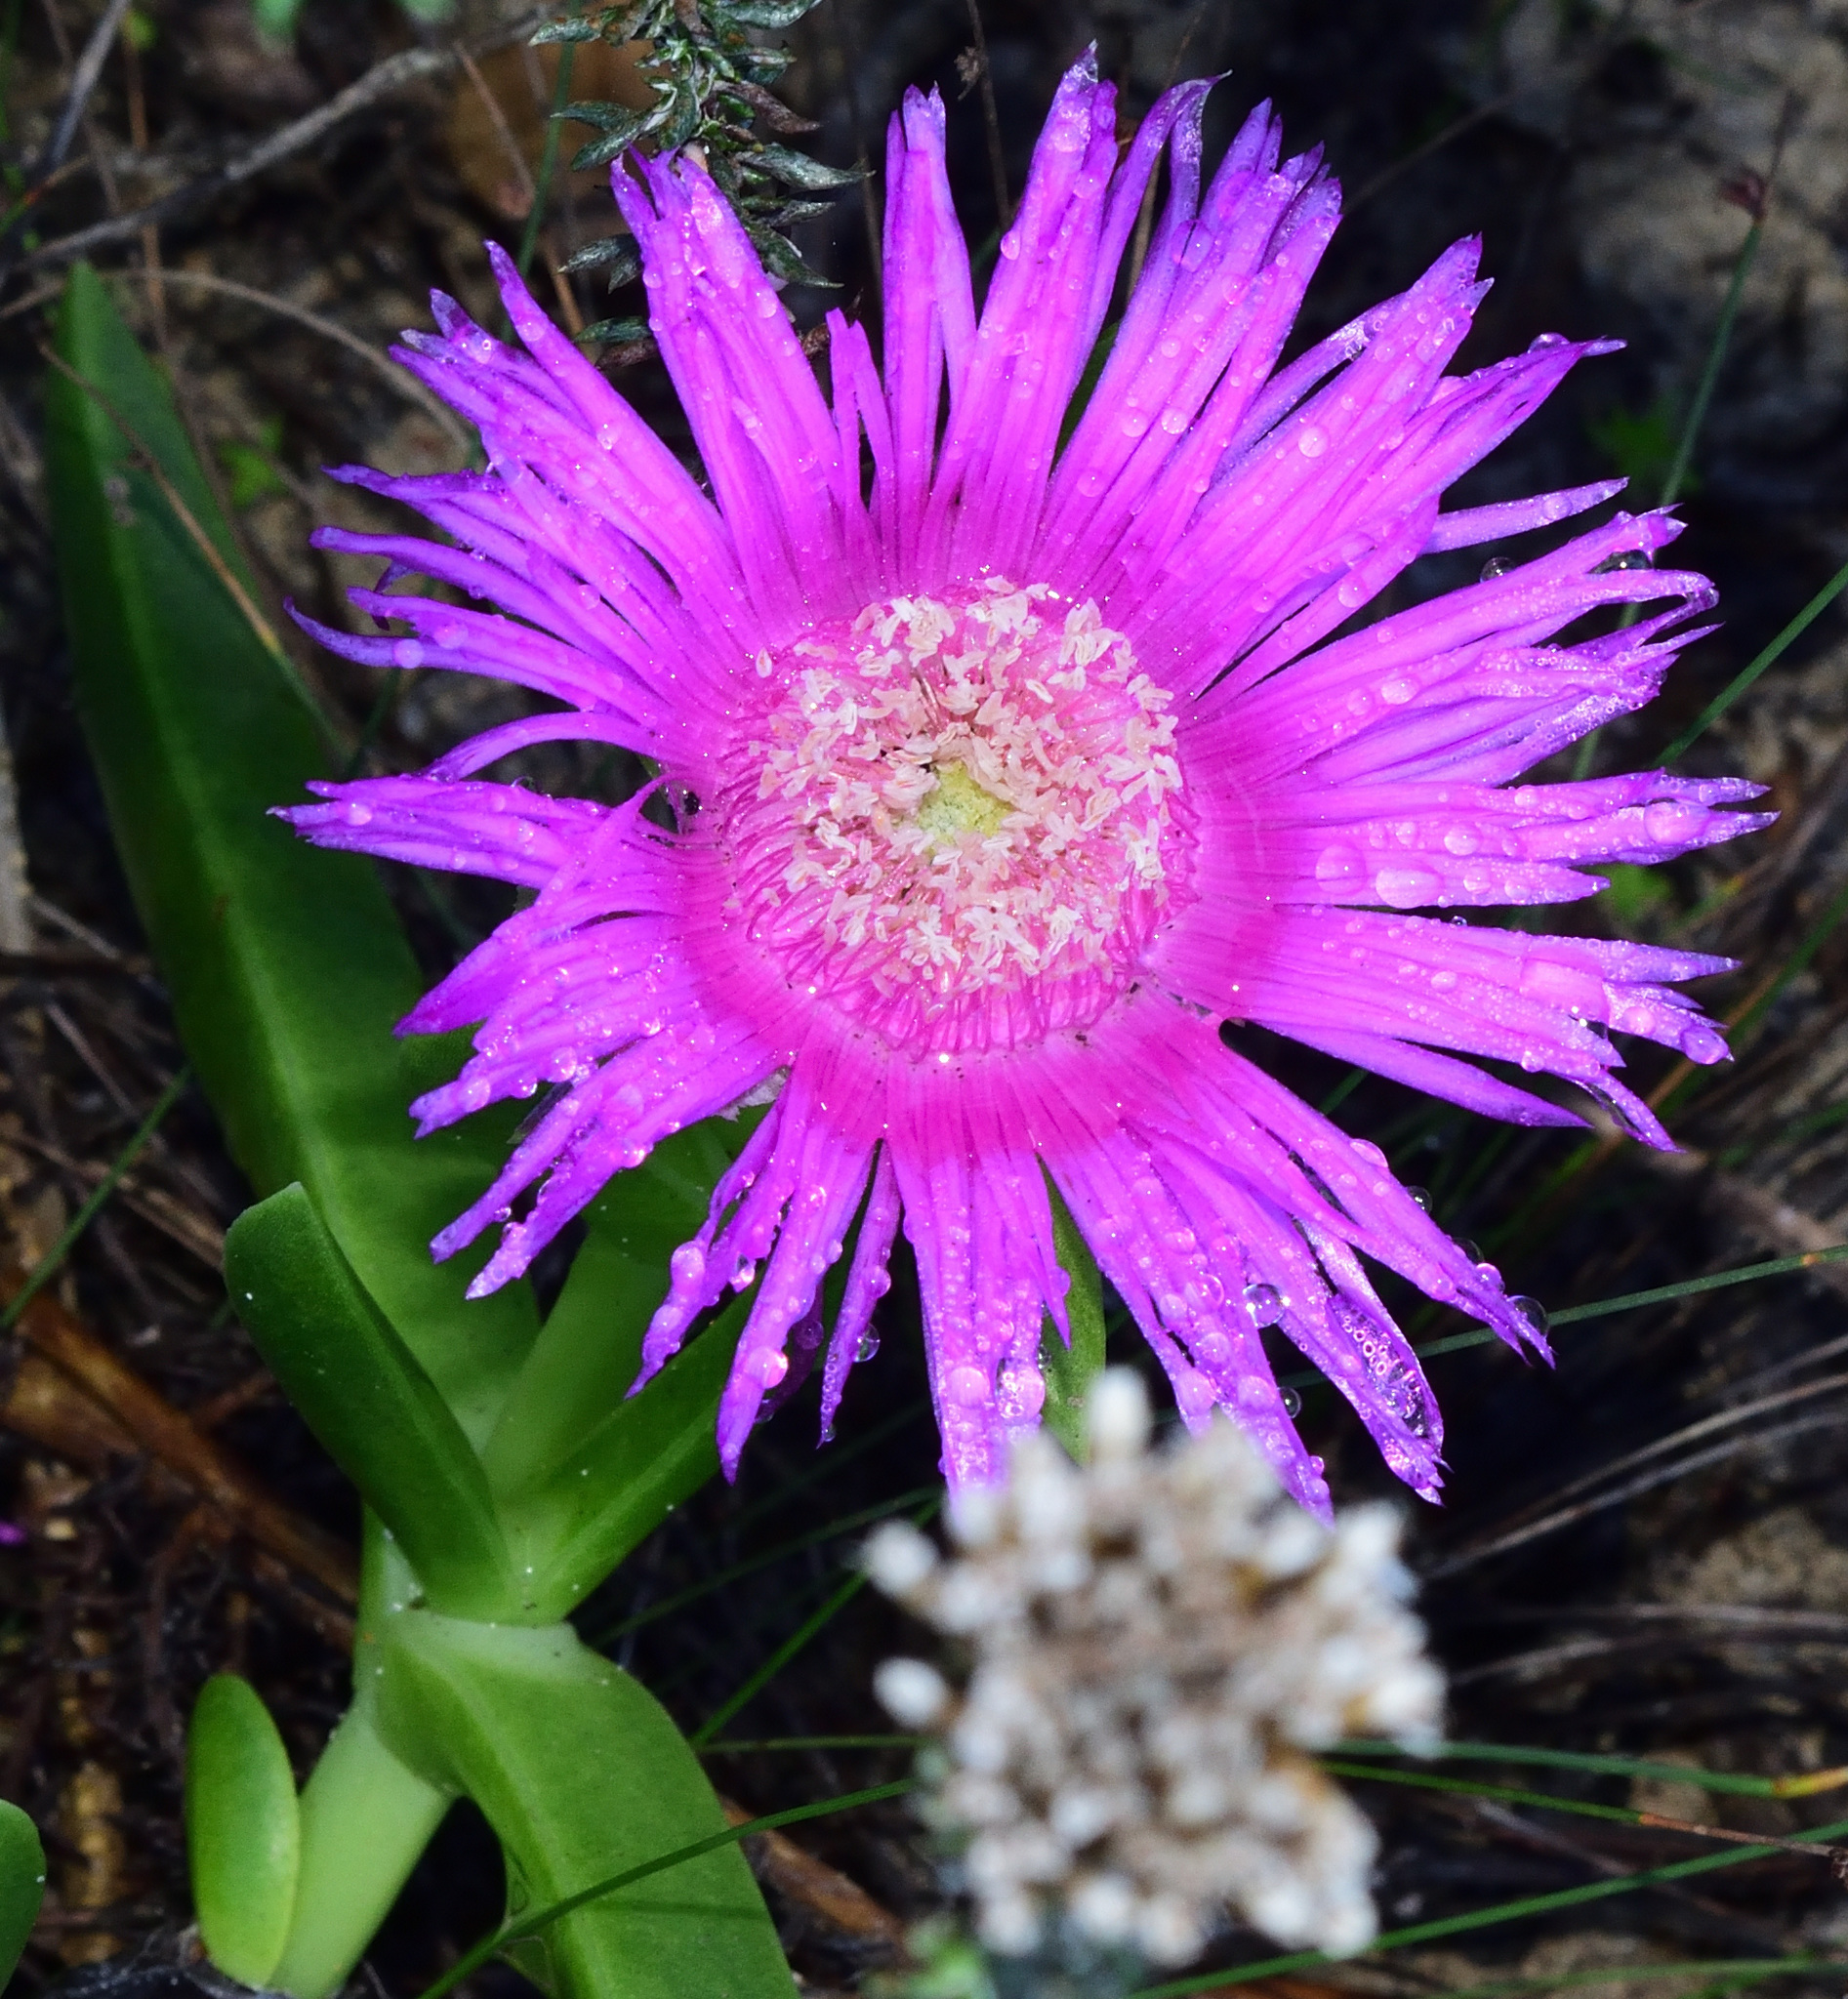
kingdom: Plantae
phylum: Tracheophyta
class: Magnoliopsida
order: Caryophyllales
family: Aizoaceae
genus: Carpobrotus
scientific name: Carpobrotus deliciosus
